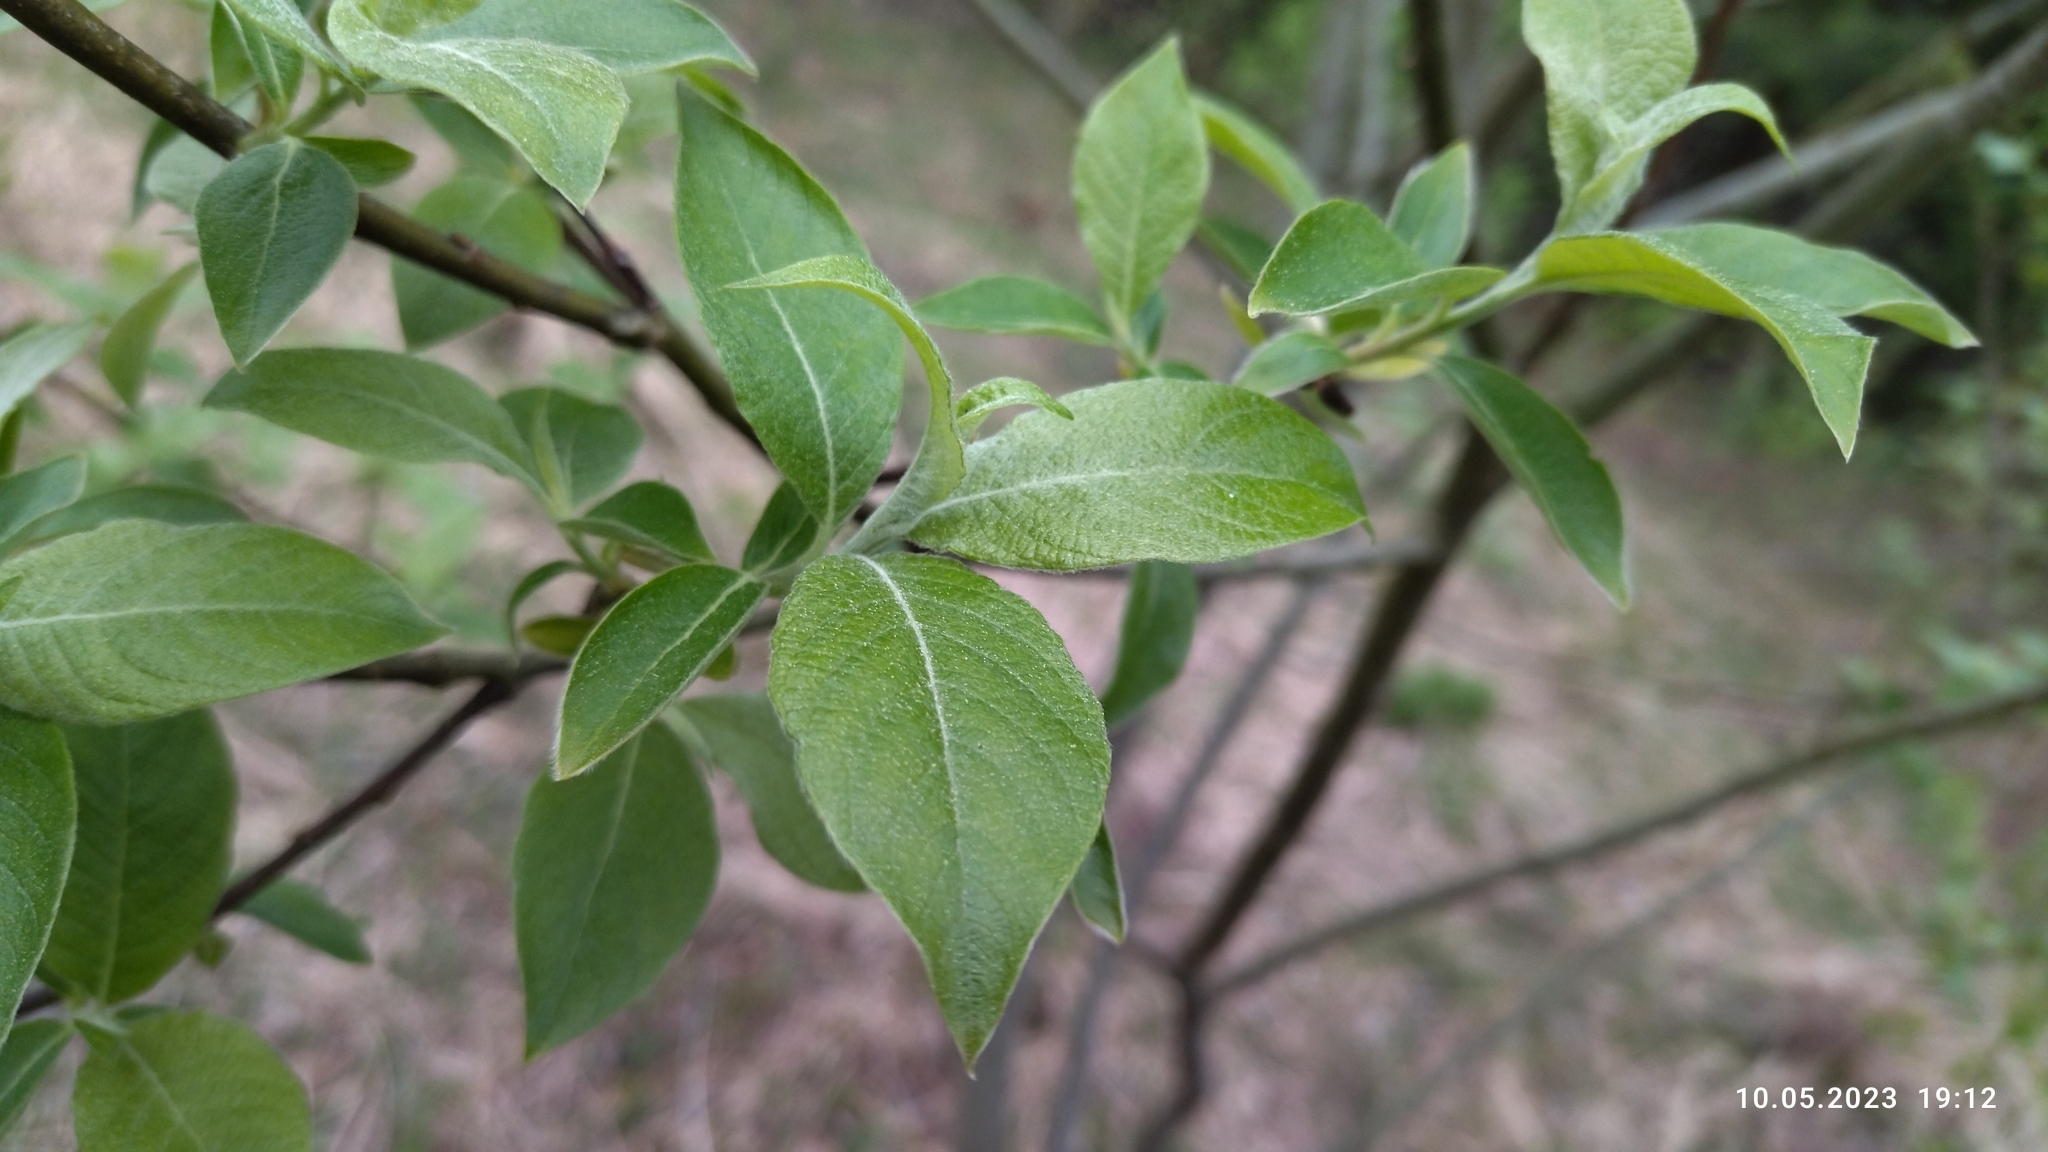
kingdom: Plantae
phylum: Tracheophyta
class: Magnoliopsida
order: Malpighiales
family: Salicaceae
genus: Salix
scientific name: Salix caprea
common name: Goat willow
